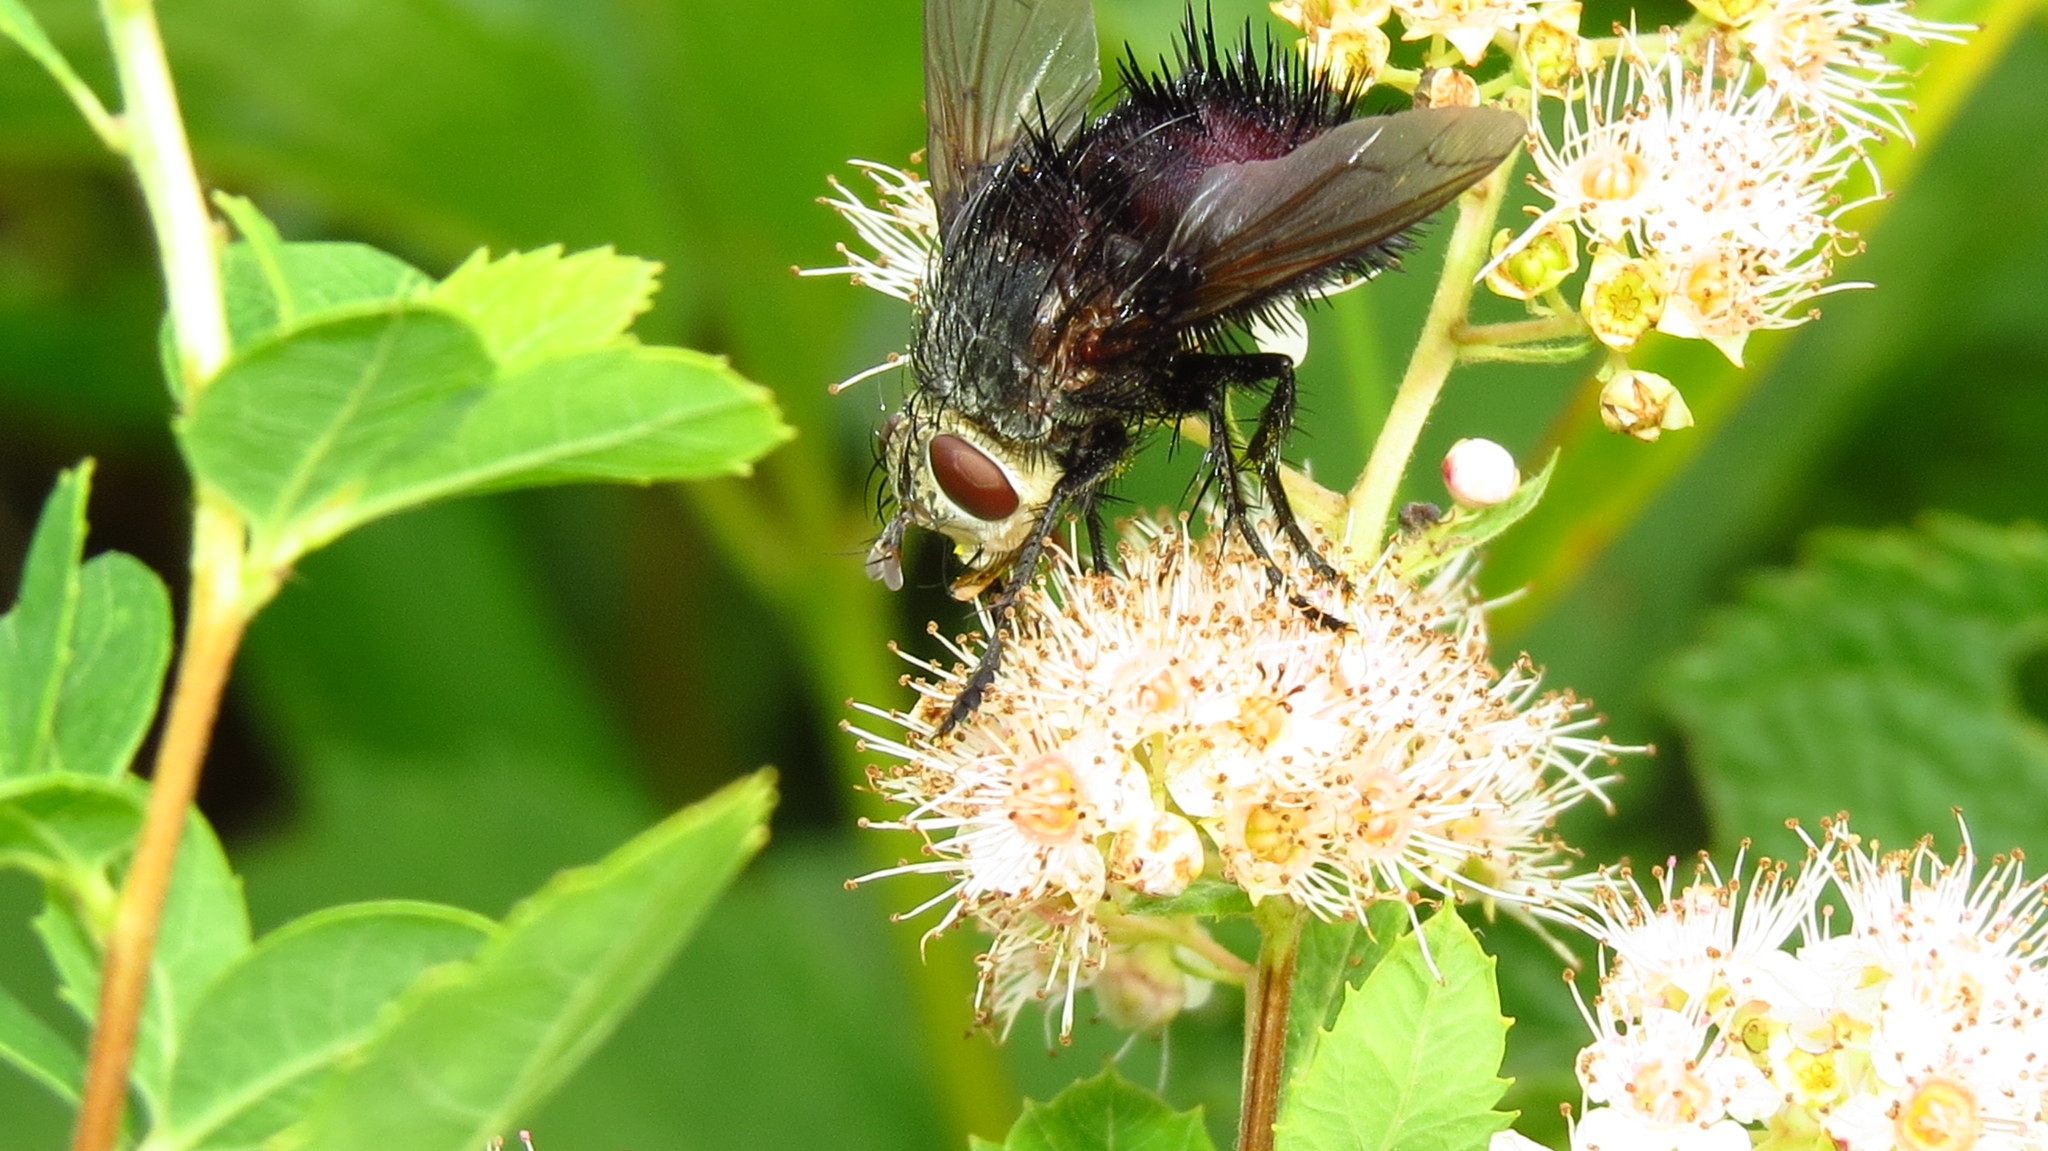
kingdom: Animalia
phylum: Arthropoda
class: Insecta
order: Diptera
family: Tachinidae
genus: Juriniopsis
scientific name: Juriniopsis adusta
